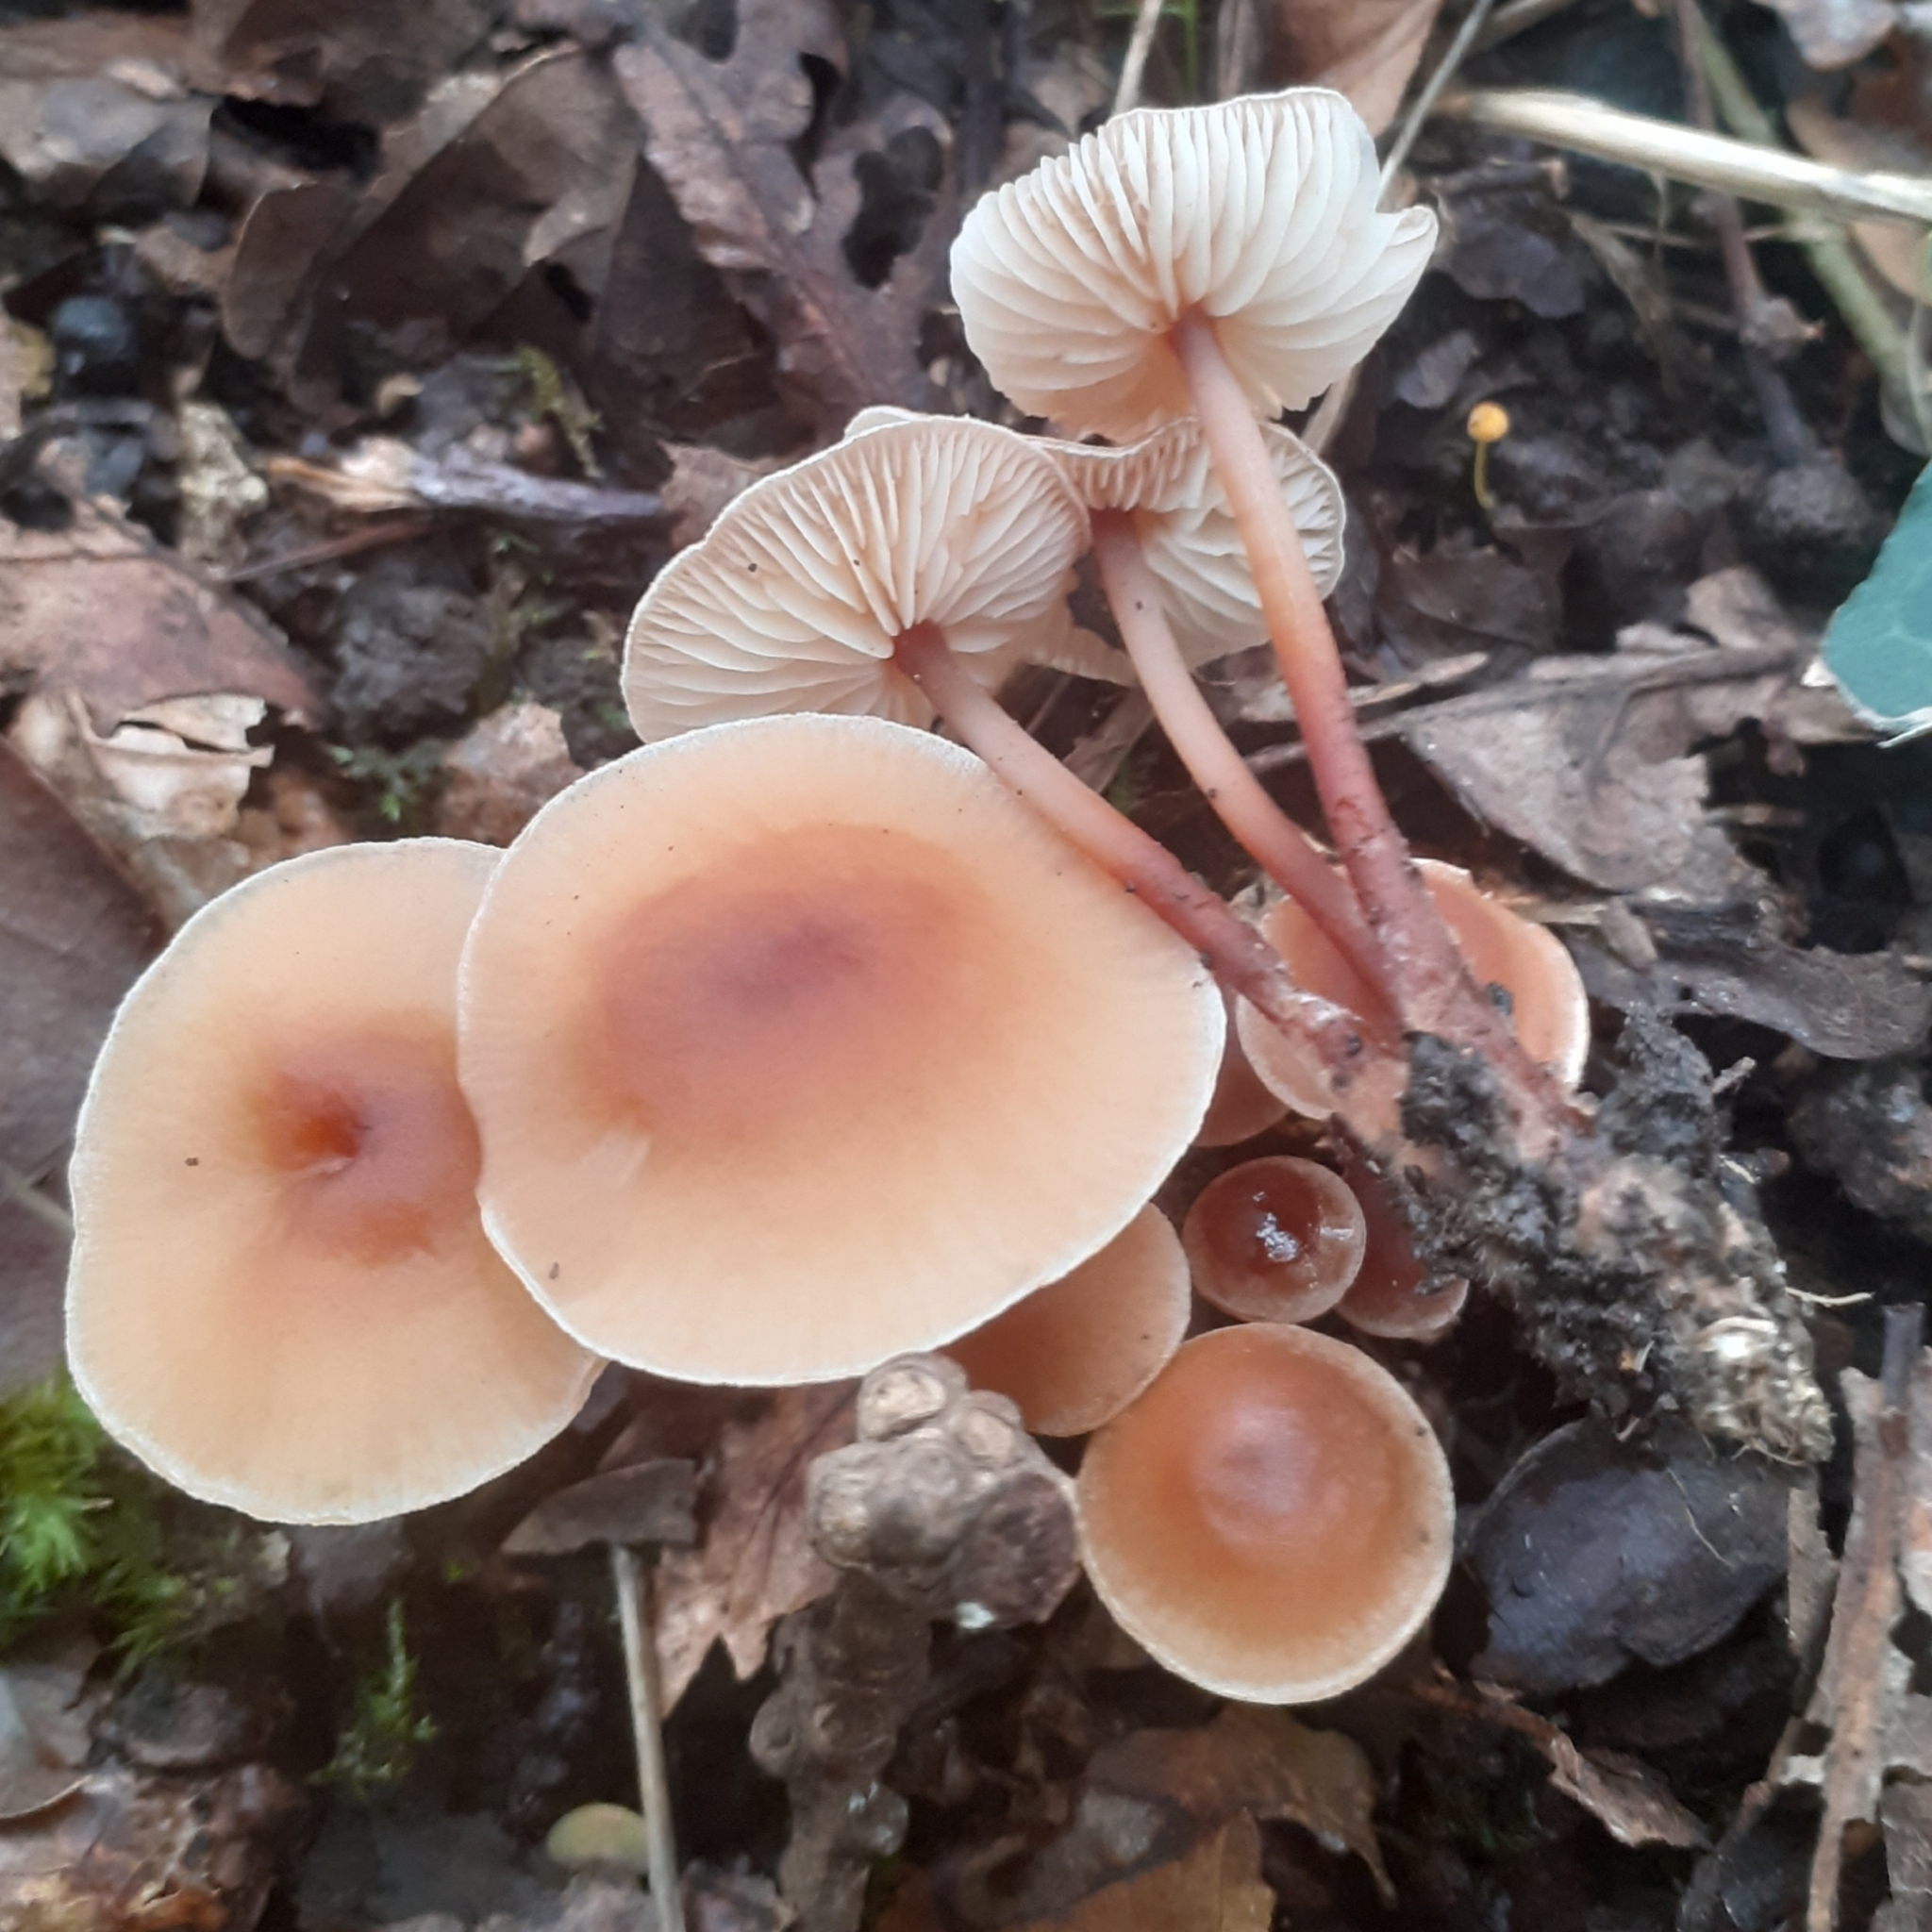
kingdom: Fungi
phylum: Basidiomycota
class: Agaricomycetes
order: Agaricales
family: Omphalotaceae
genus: Gymnopus
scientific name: Gymnopus dryophilus
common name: Penny top
